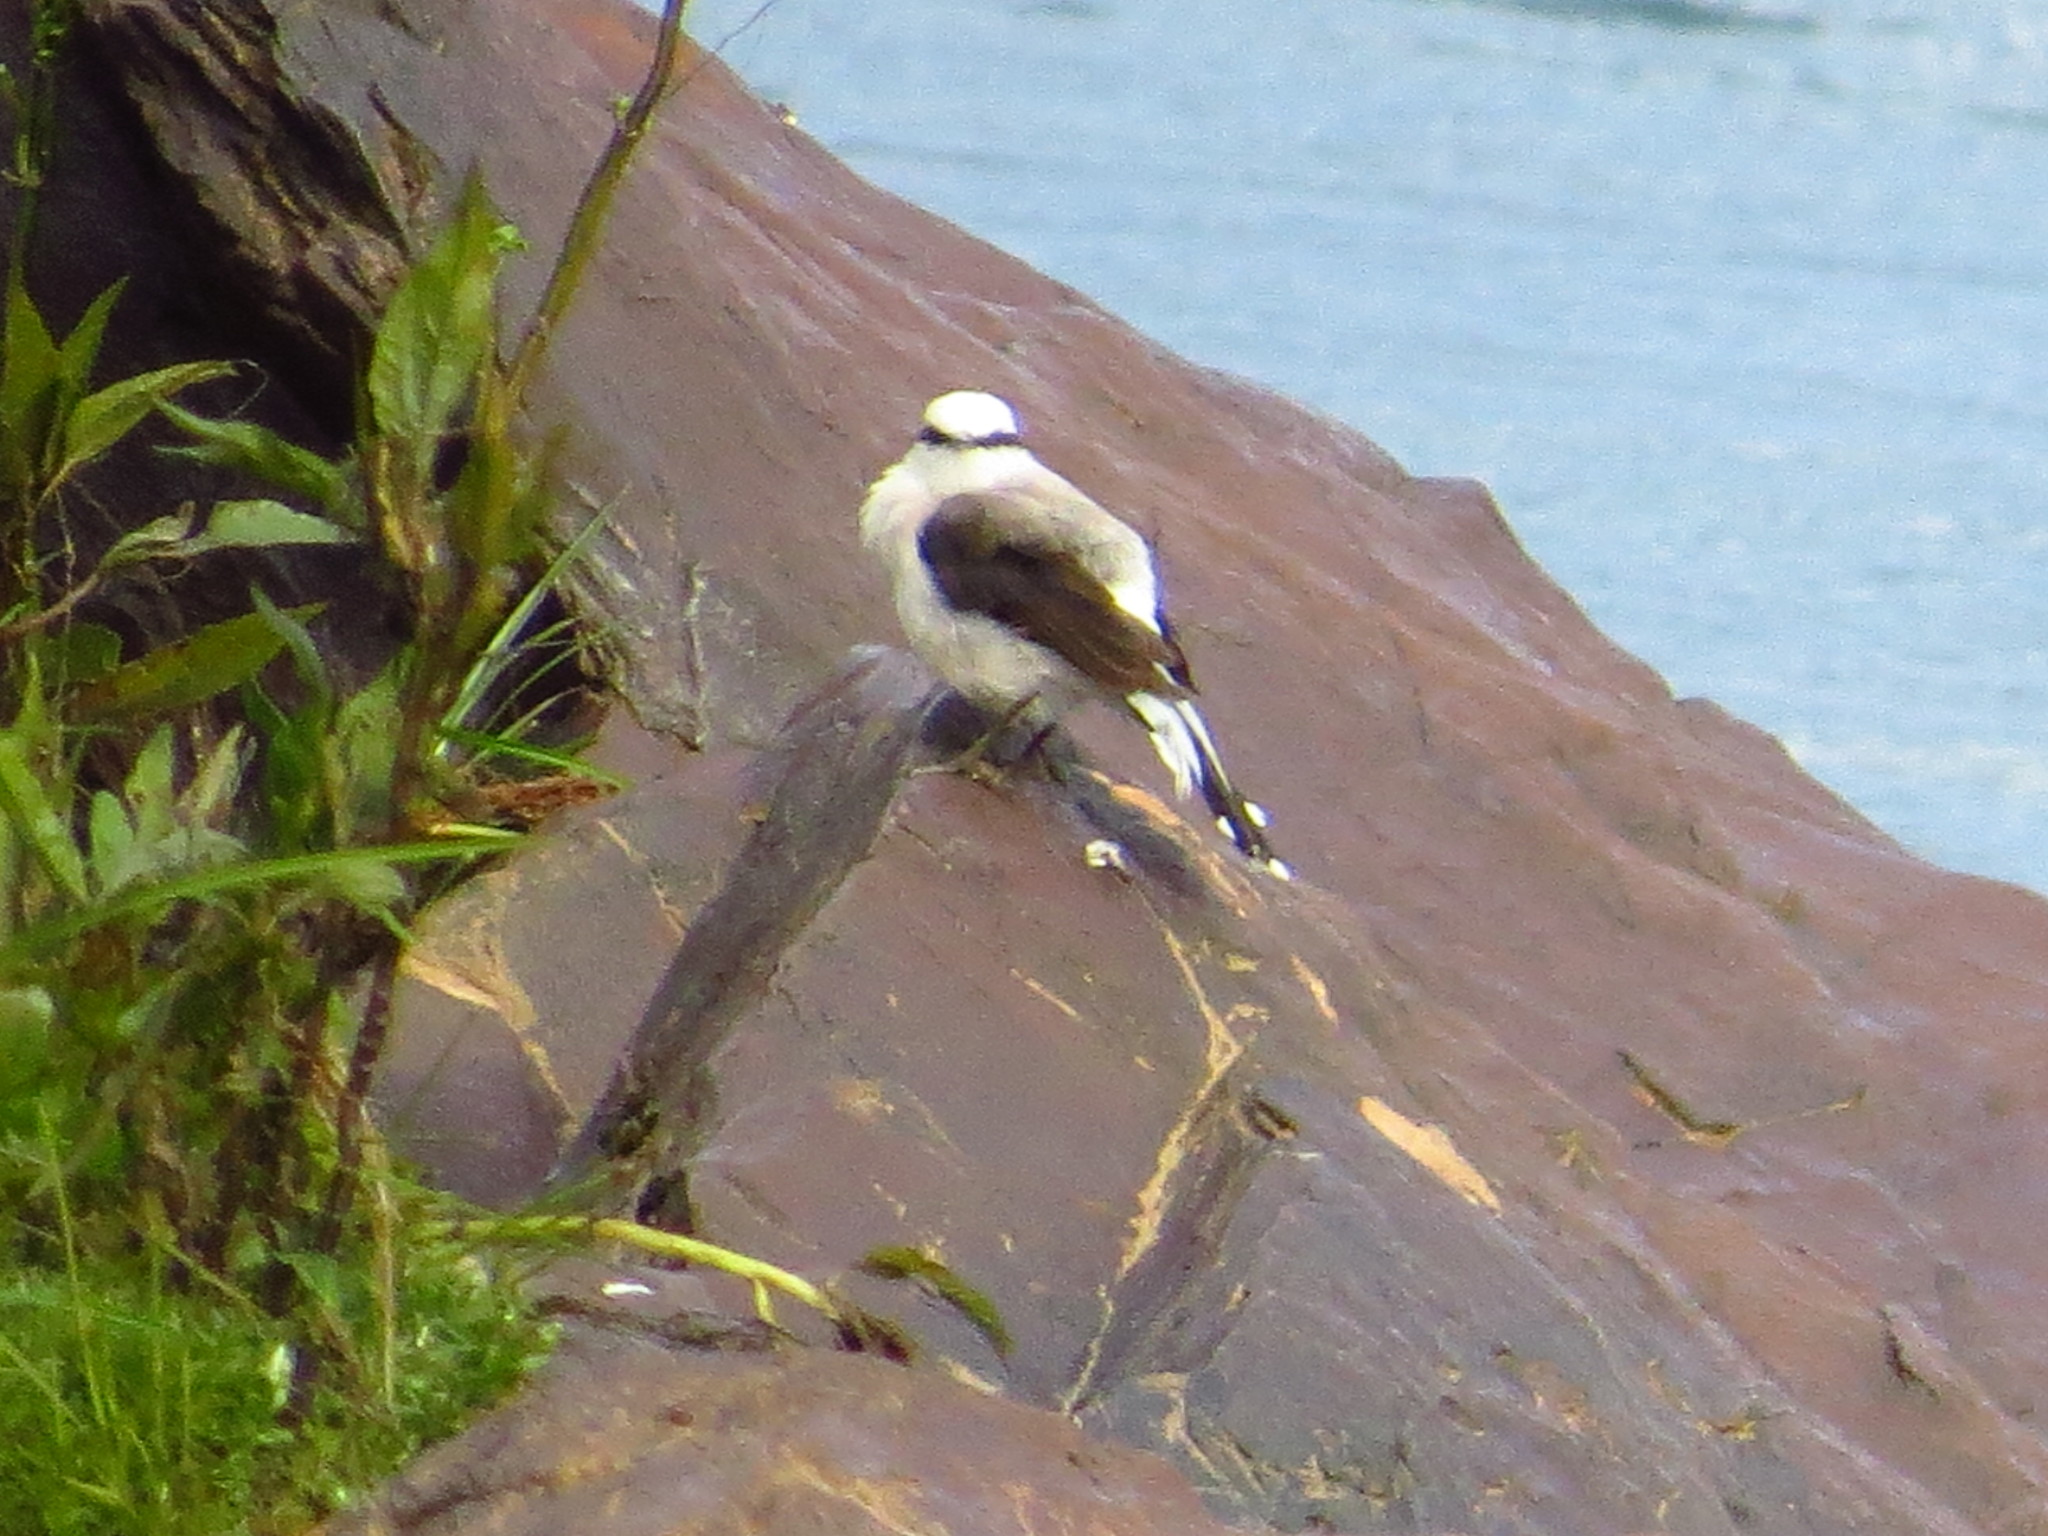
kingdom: Animalia
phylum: Chordata
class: Aves
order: Passeriformes
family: Tyrannidae
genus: Fluvicola
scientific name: Fluvicola nengeta
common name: Masked water tyrant
